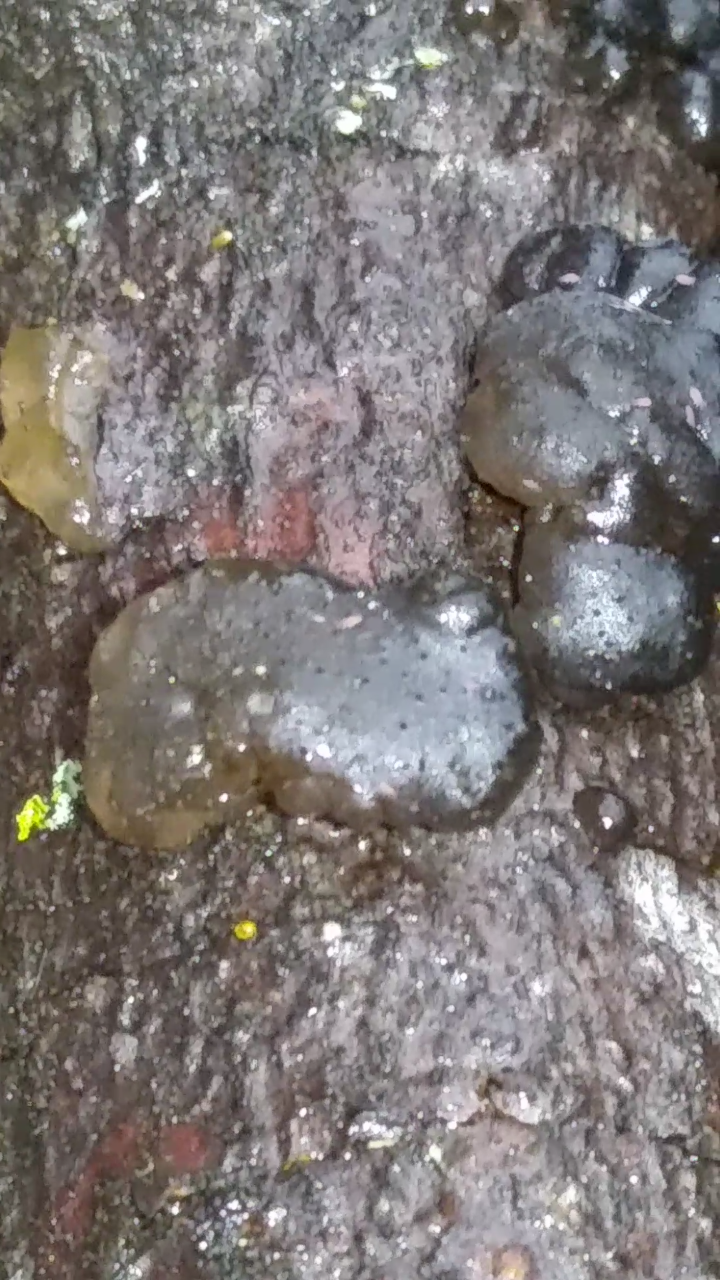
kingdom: Fungi
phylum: Basidiomycota
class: Agaricomycetes
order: Auriculariales
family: Auriculariaceae
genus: Exidia
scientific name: Exidia glandulosa
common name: Witches' butter
